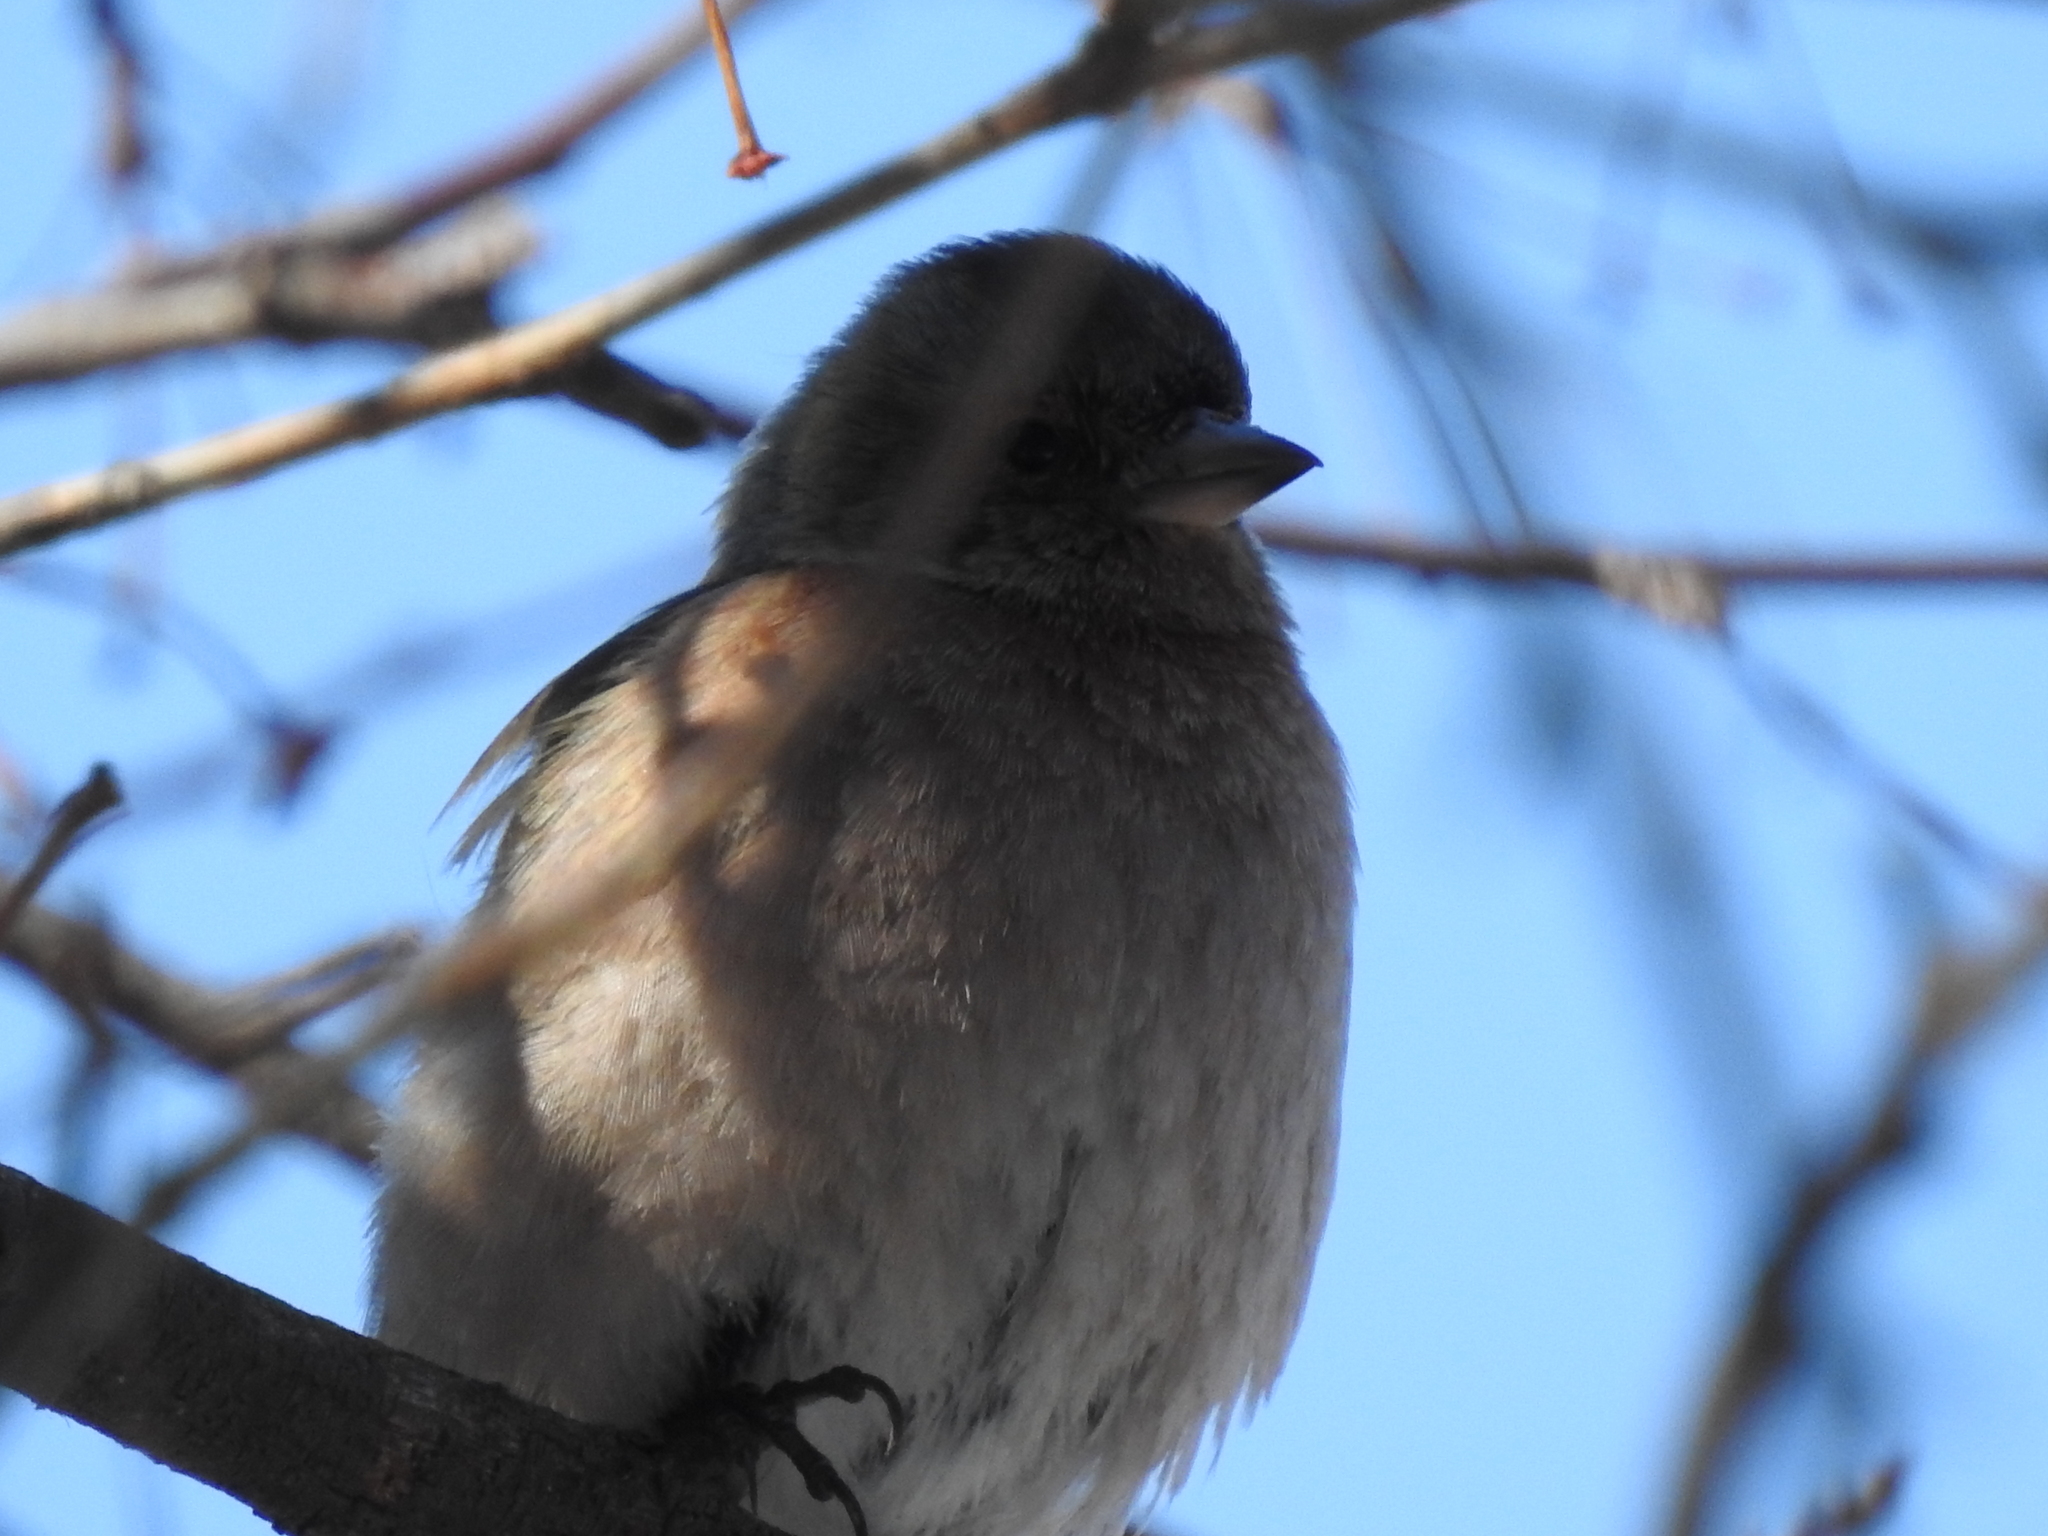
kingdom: Animalia
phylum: Chordata
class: Aves
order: Passeriformes
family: Fringillidae
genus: Fringilla
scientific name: Fringilla coelebs
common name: Common chaffinch
